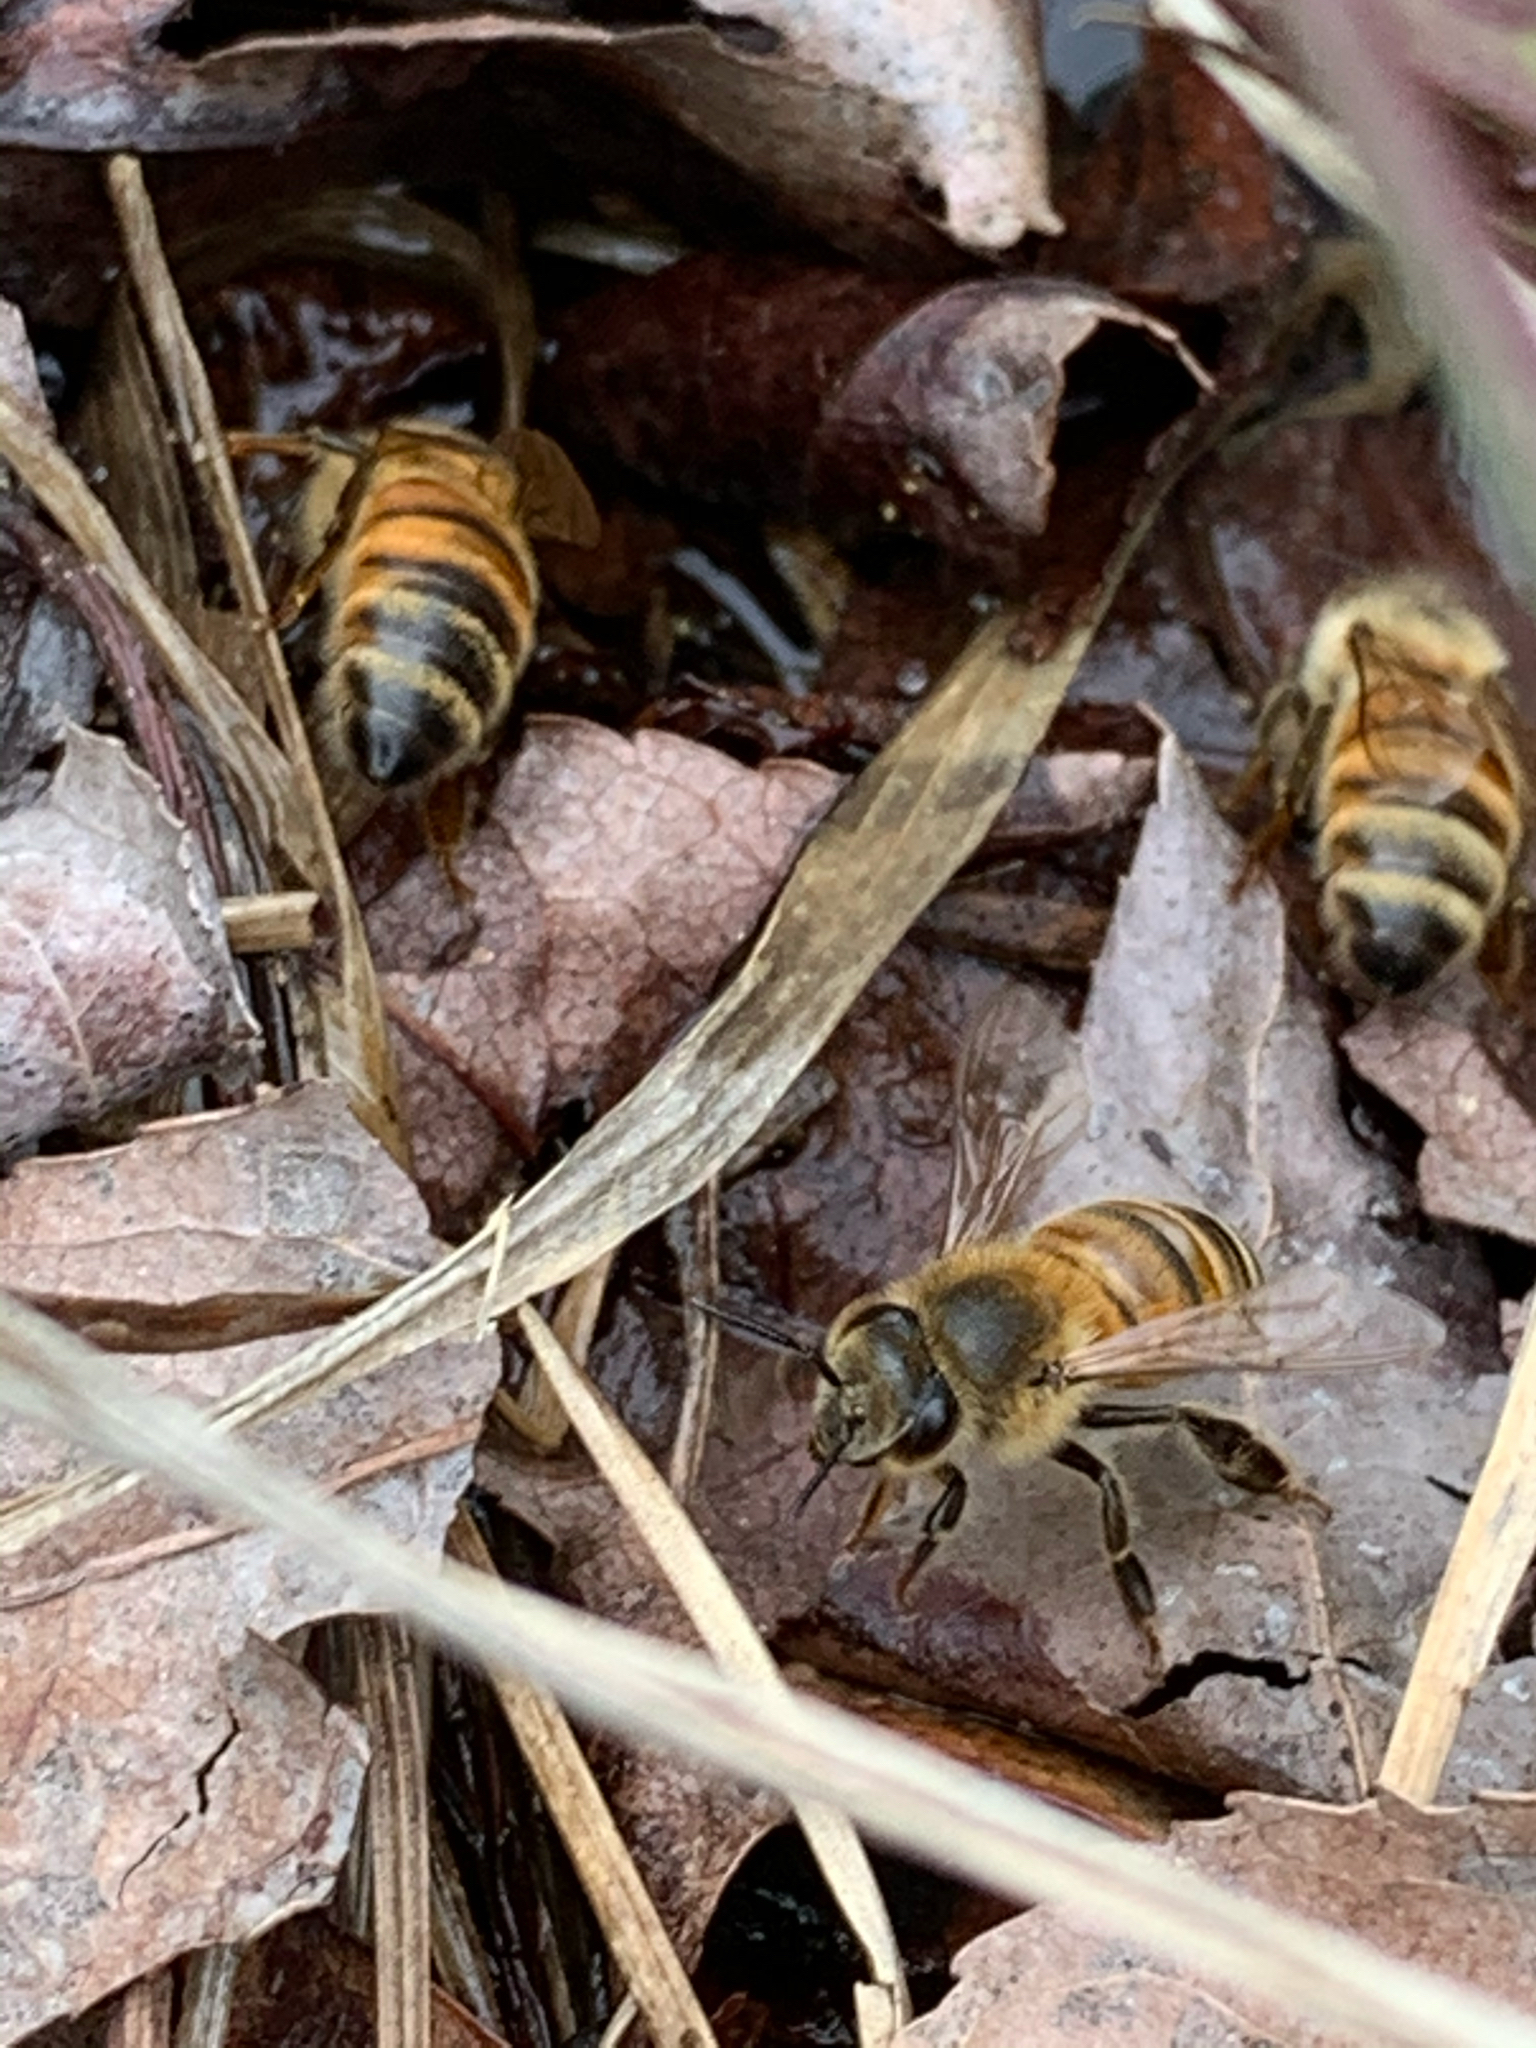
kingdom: Animalia
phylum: Arthropoda
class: Insecta
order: Hymenoptera
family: Apidae
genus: Apis
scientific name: Apis mellifera
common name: Honey bee
